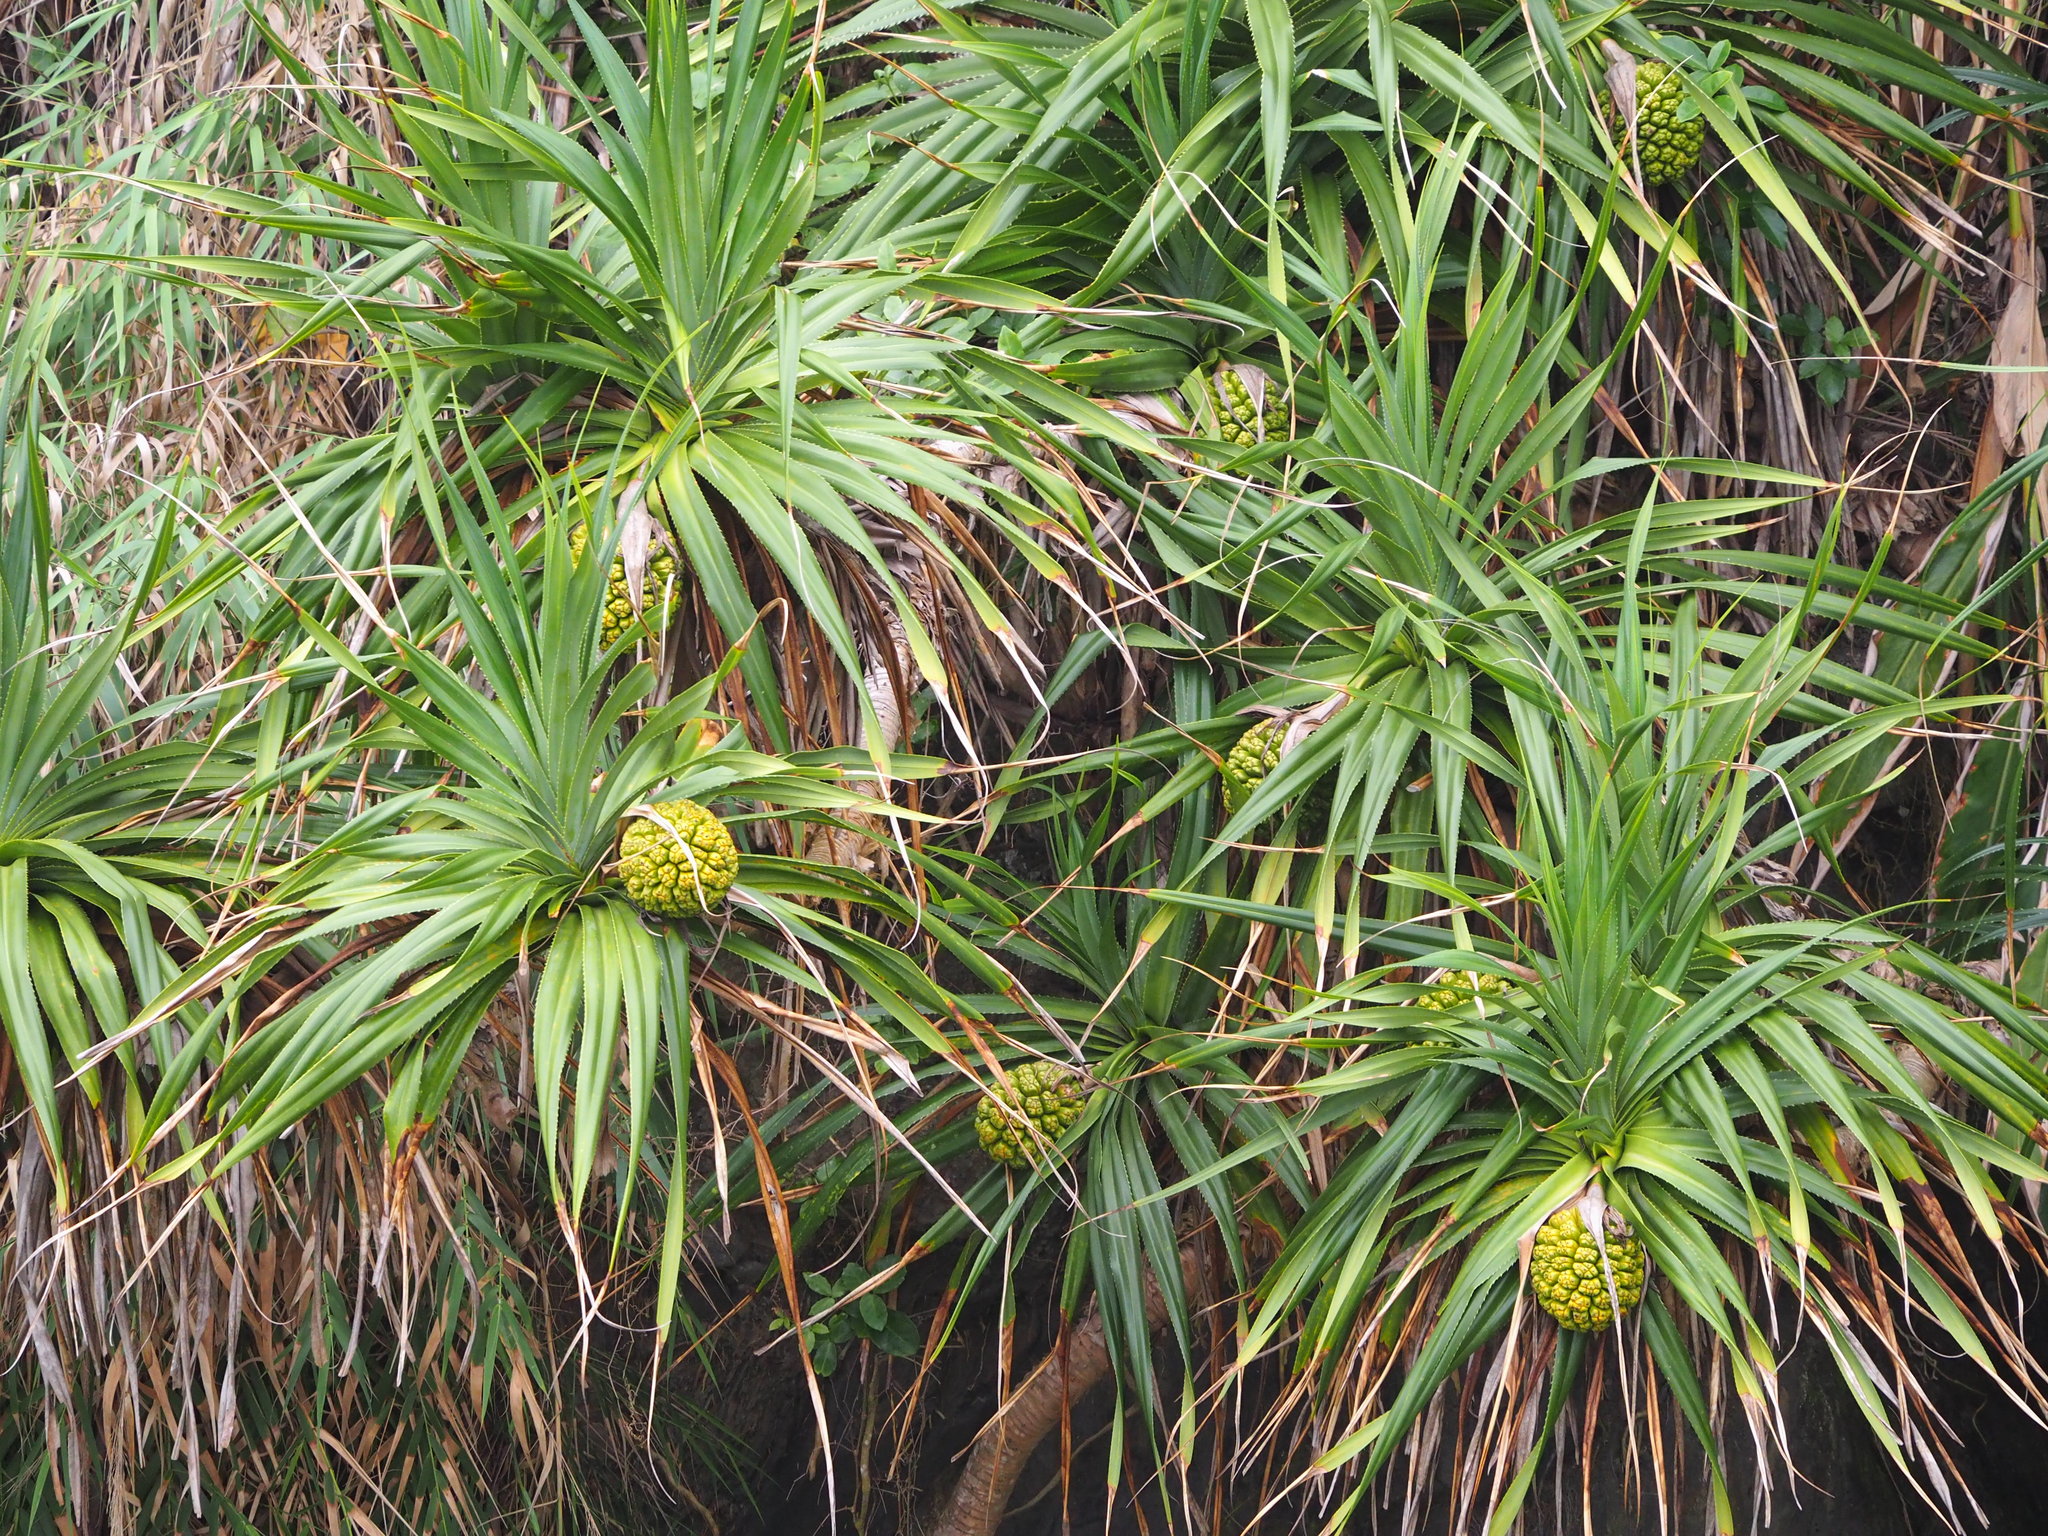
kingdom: Plantae
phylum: Tracheophyta
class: Liliopsida
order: Pandanales
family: Pandanaceae
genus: Pandanus
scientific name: Pandanus odorifer
